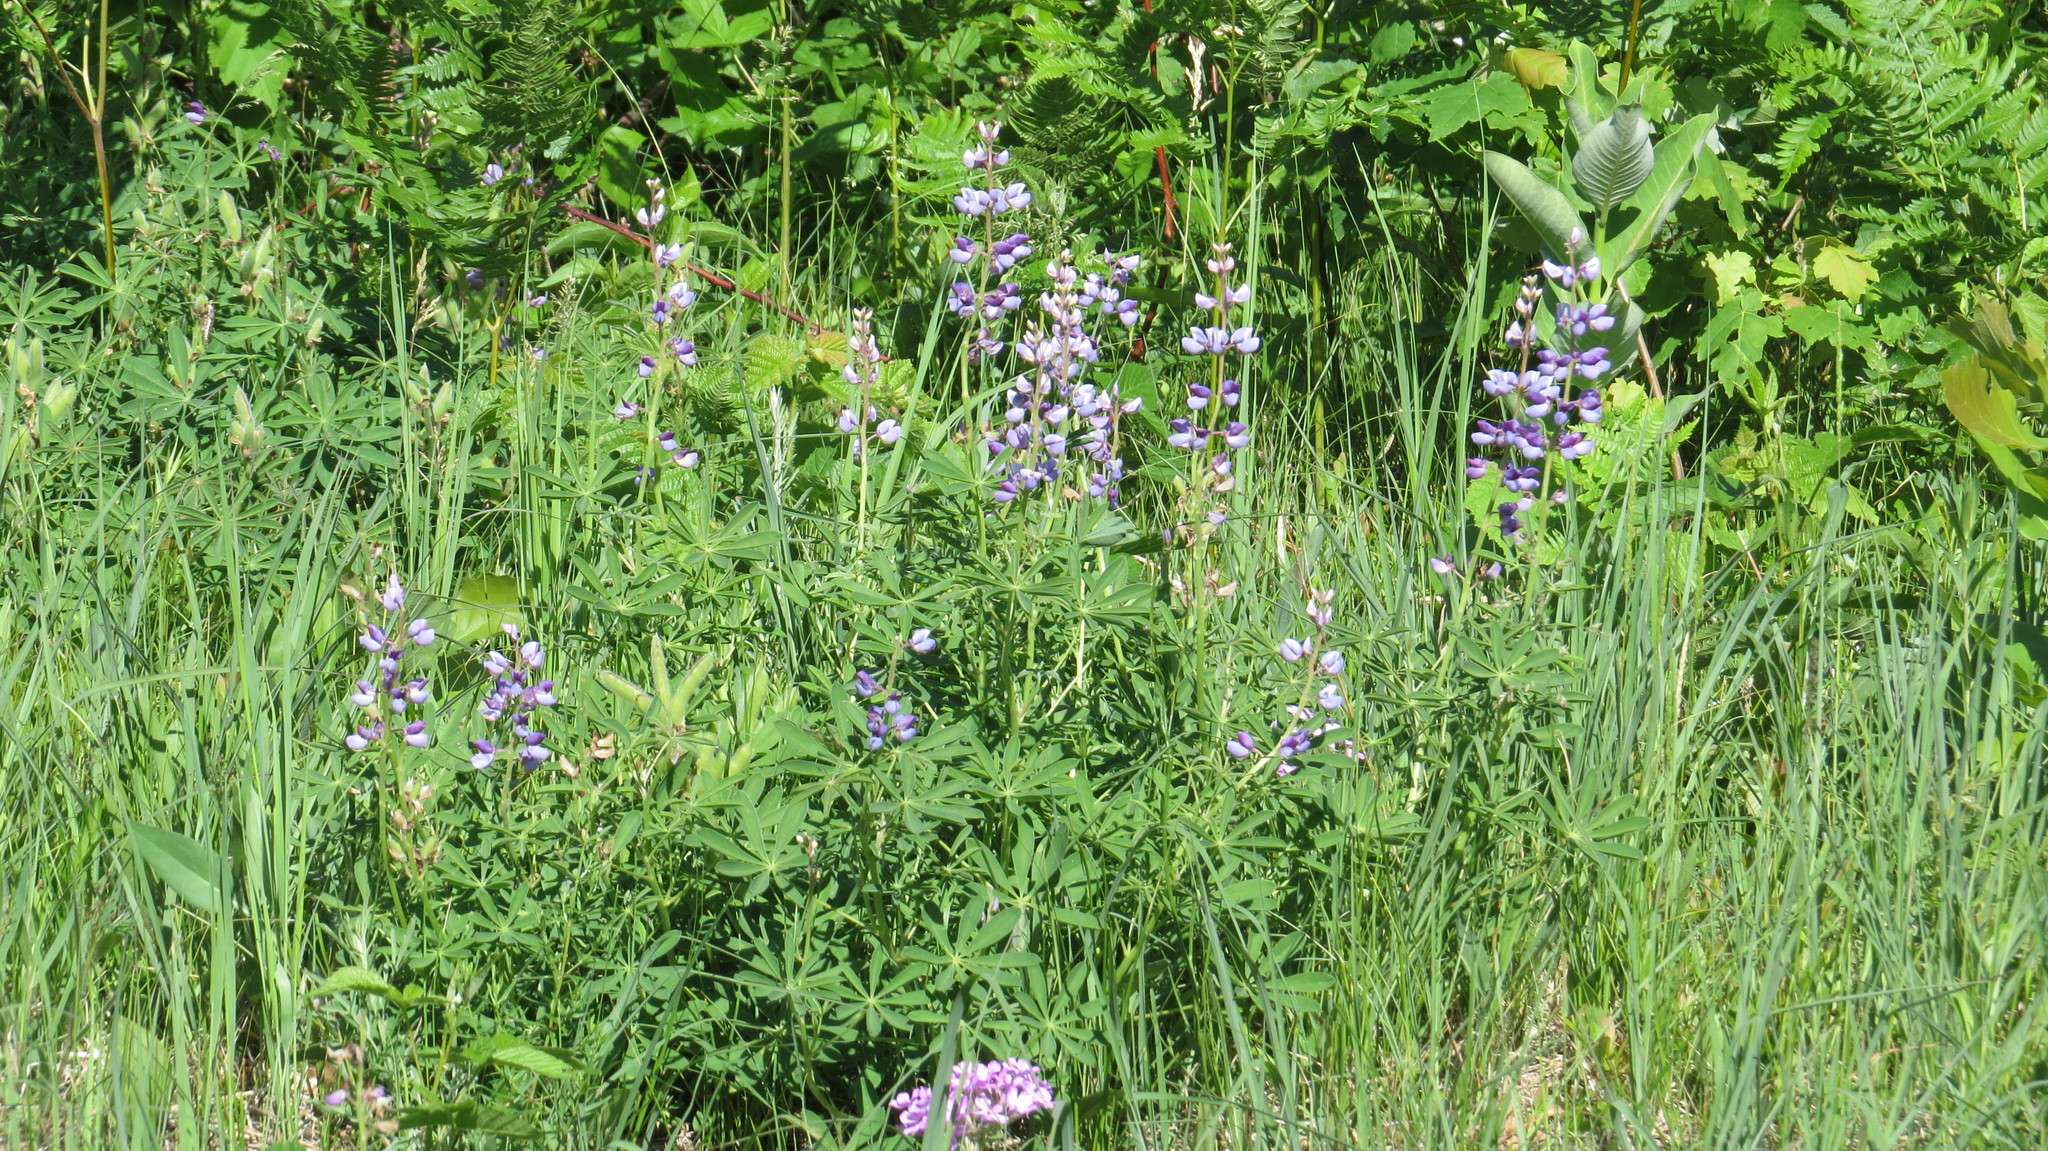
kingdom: Plantae
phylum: Tracheophyta
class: Magnoliopsida
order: Fabales
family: Fabaceae
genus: Lupinus
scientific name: Lupinus perennis
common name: Sundial lupine
